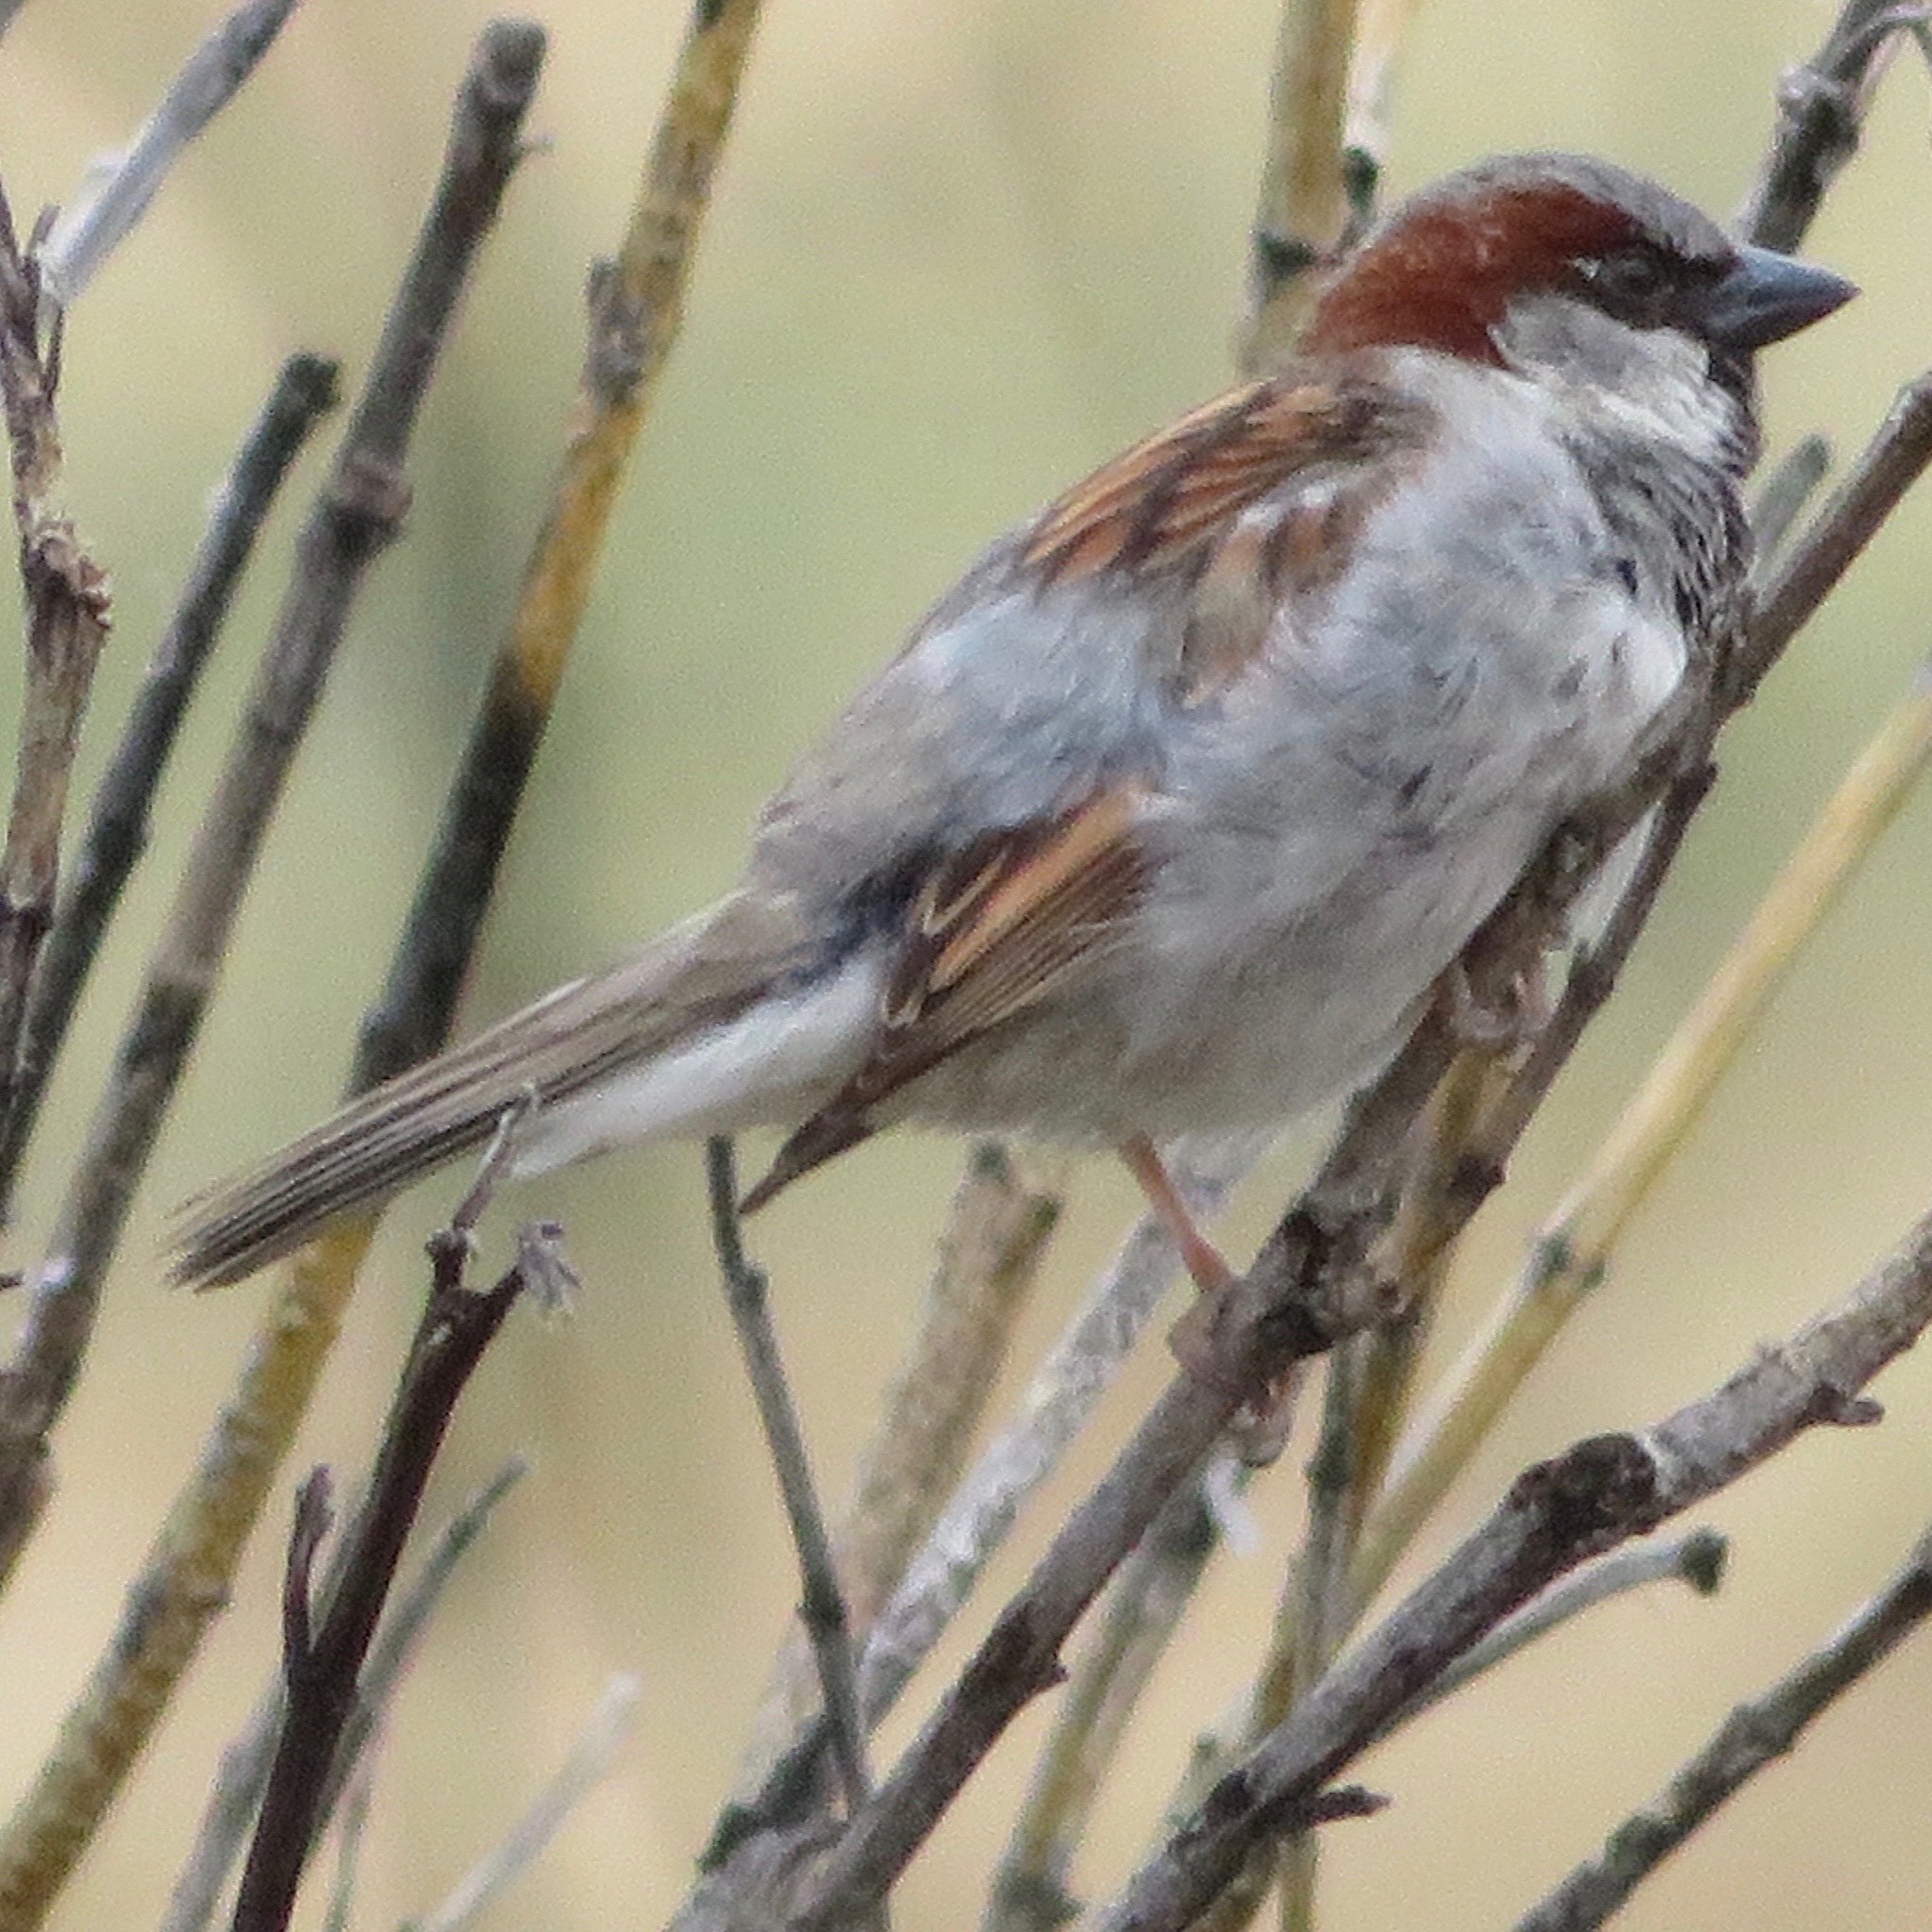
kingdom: Animalia
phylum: Chordata
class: Aves
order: Passeriformes
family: Passeridae
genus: Passer
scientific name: Passer domesticus
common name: House sparrow
